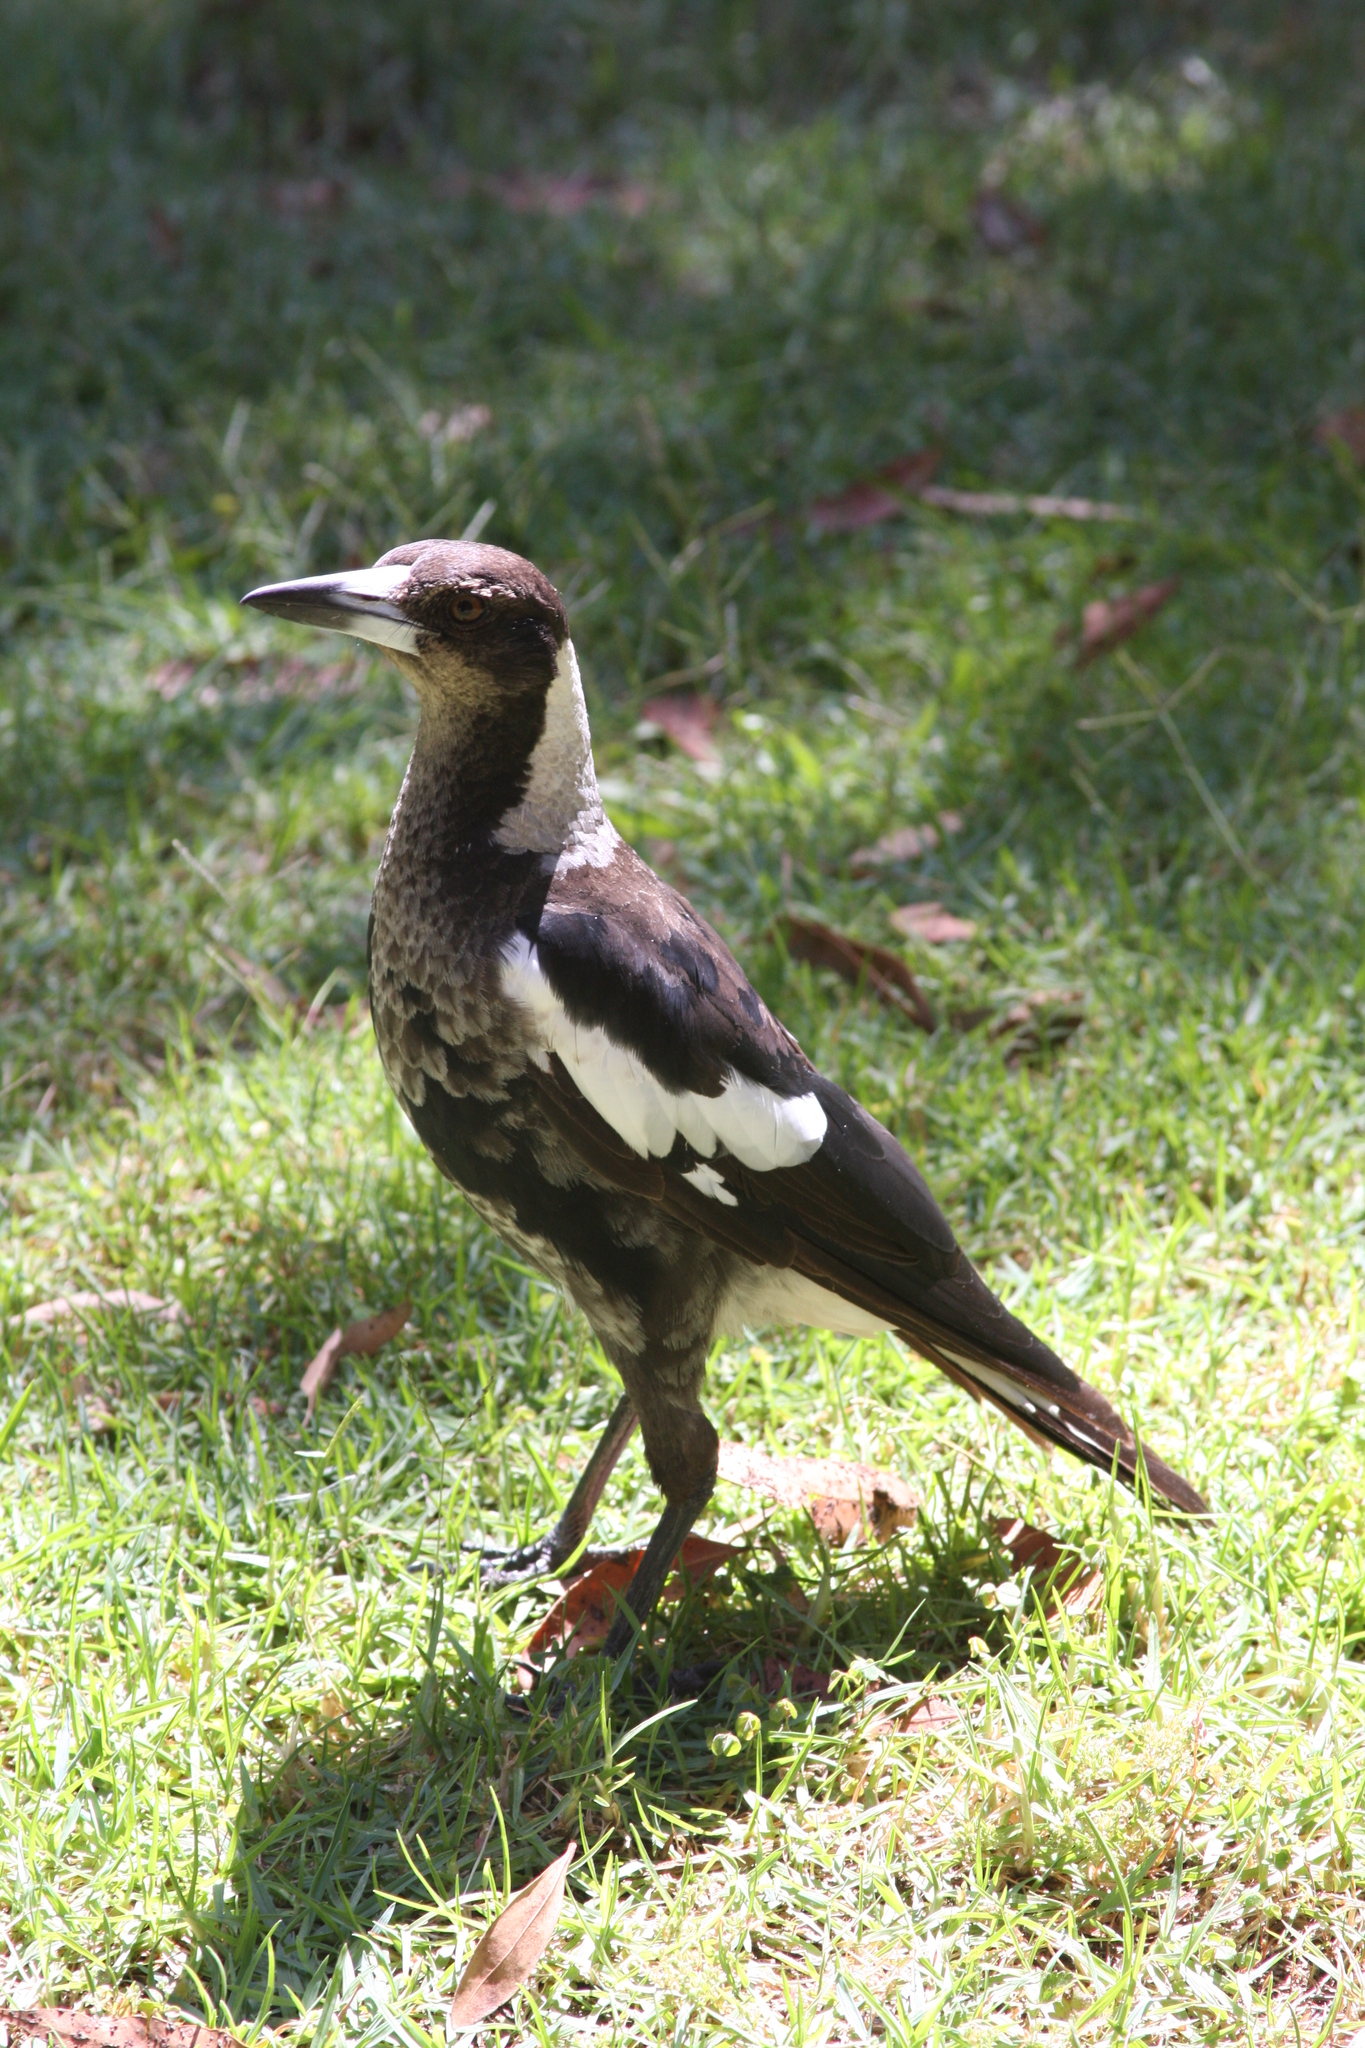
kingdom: Animalia
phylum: Chordata
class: Aves
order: Passeriformes
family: Cracticidae
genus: Gymnorhina
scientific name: Gymnorhina tibicen
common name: Australian magpie
